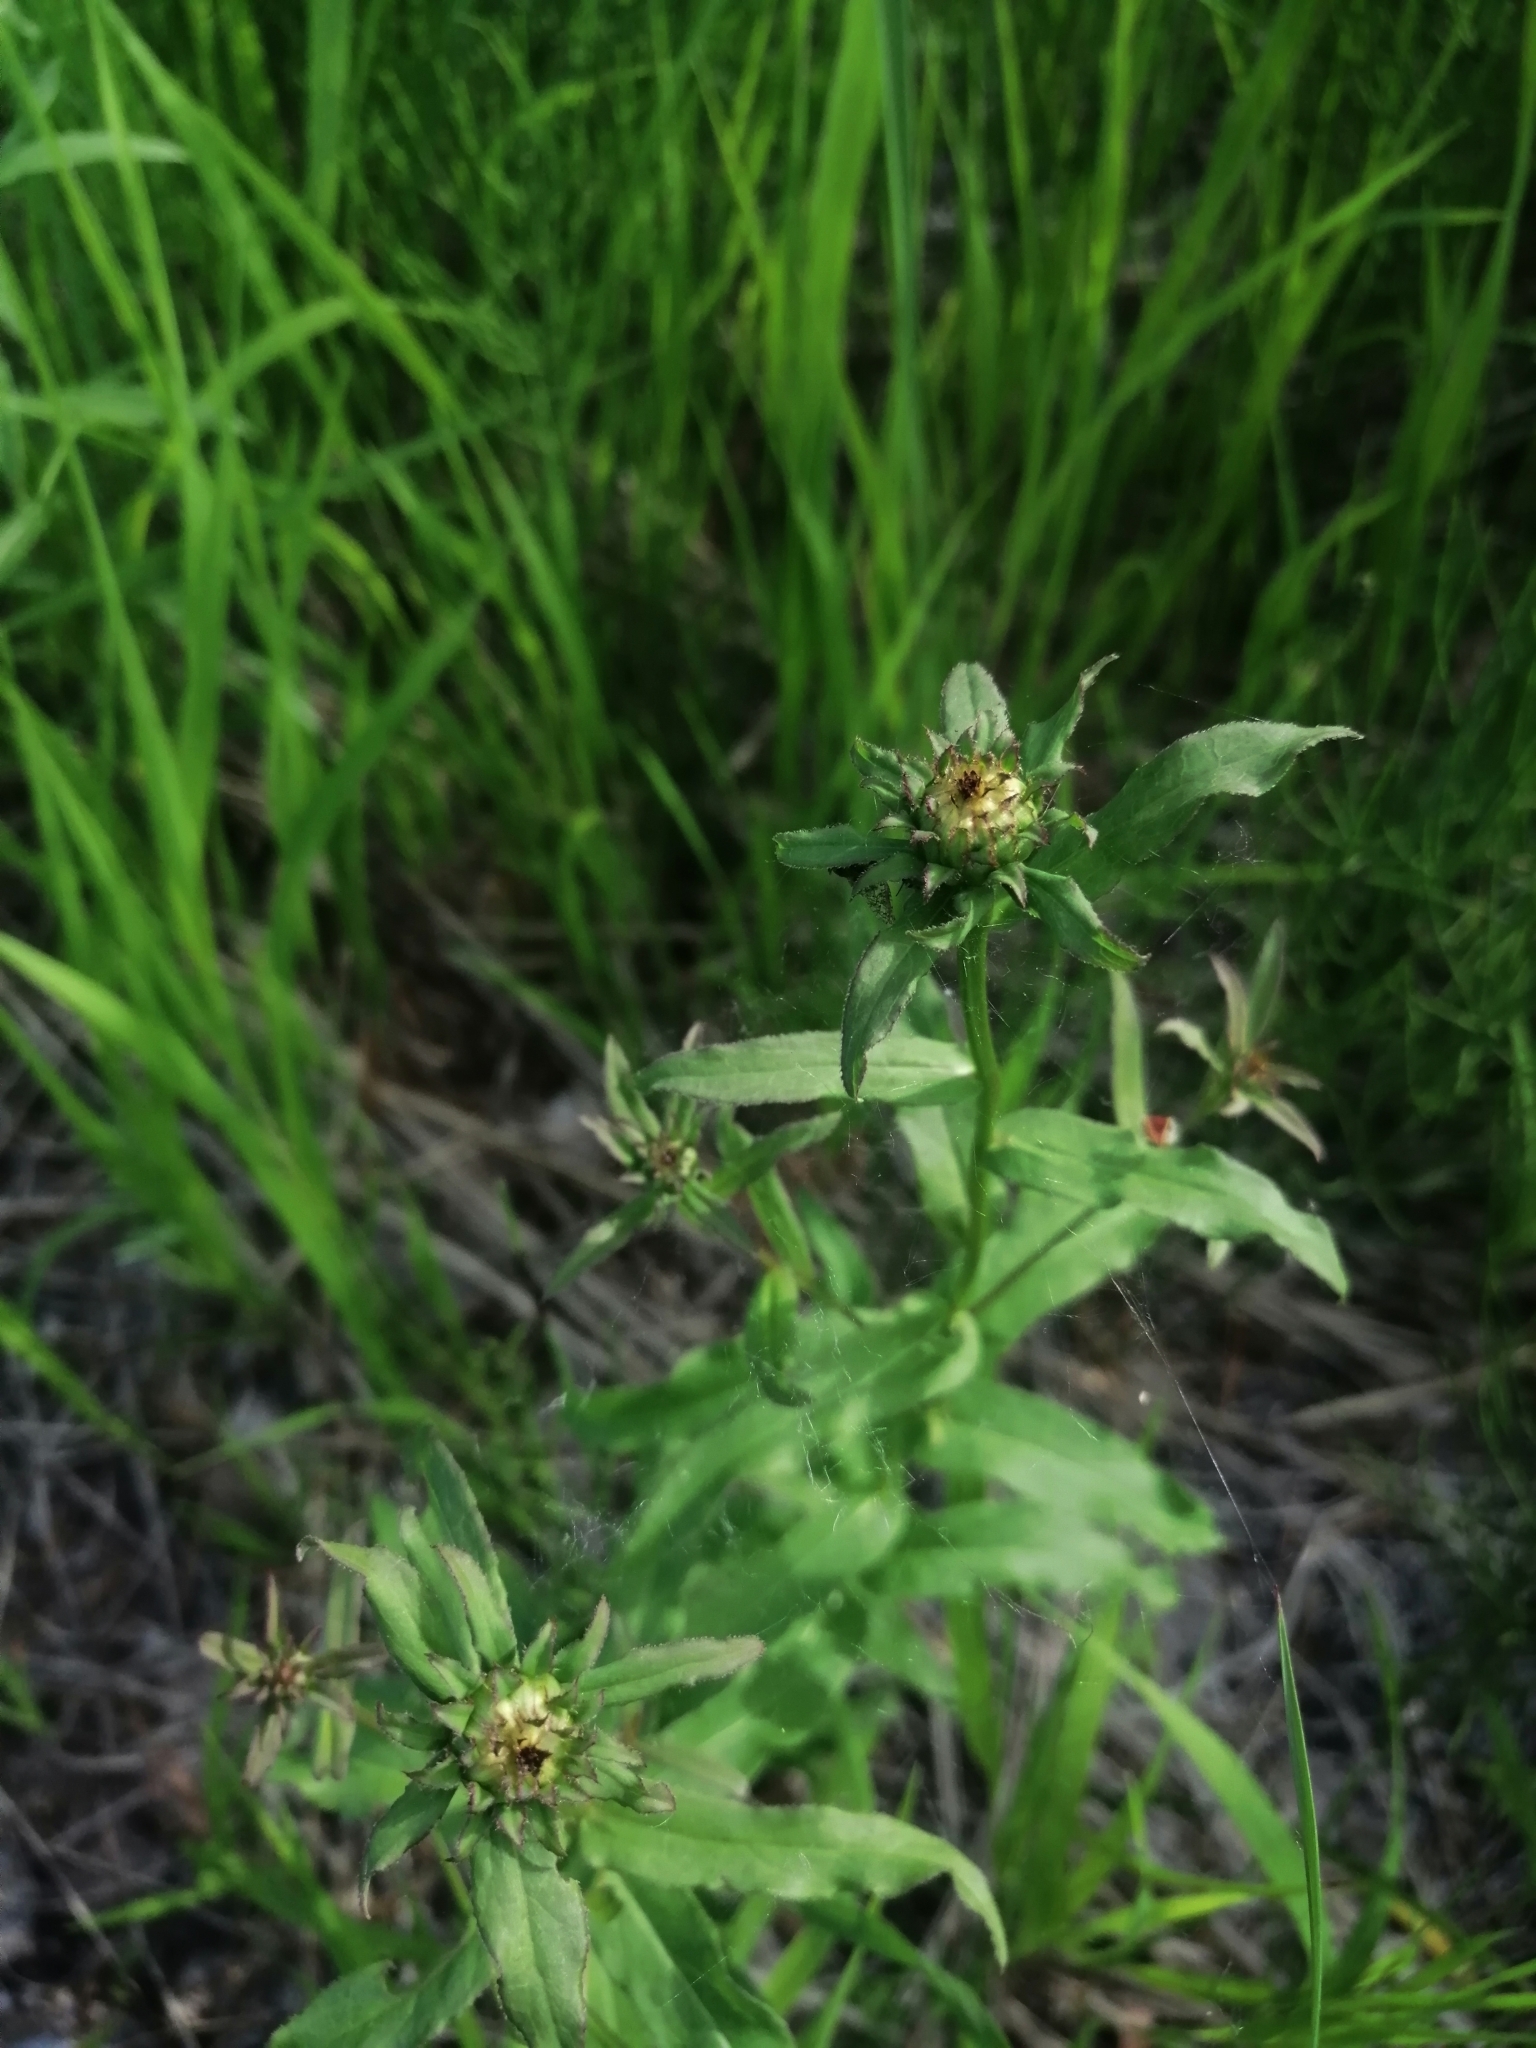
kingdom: Plantae
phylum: Tracheophyta
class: Magnoliopsida
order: Asterales
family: Asteraceae
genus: Pentanema
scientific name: Pentanema salicinum
